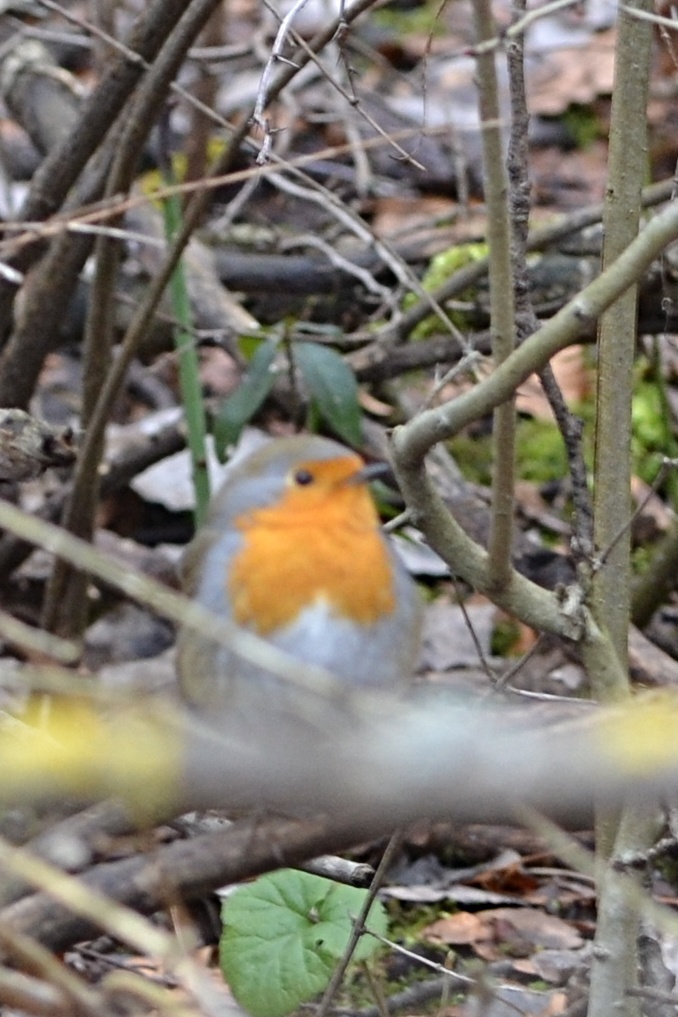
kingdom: Animalia
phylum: Chordata
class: Aves
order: Passeriformes
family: Muscicapidae
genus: Erithacus
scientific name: Erithacus rubecula
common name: European robin
